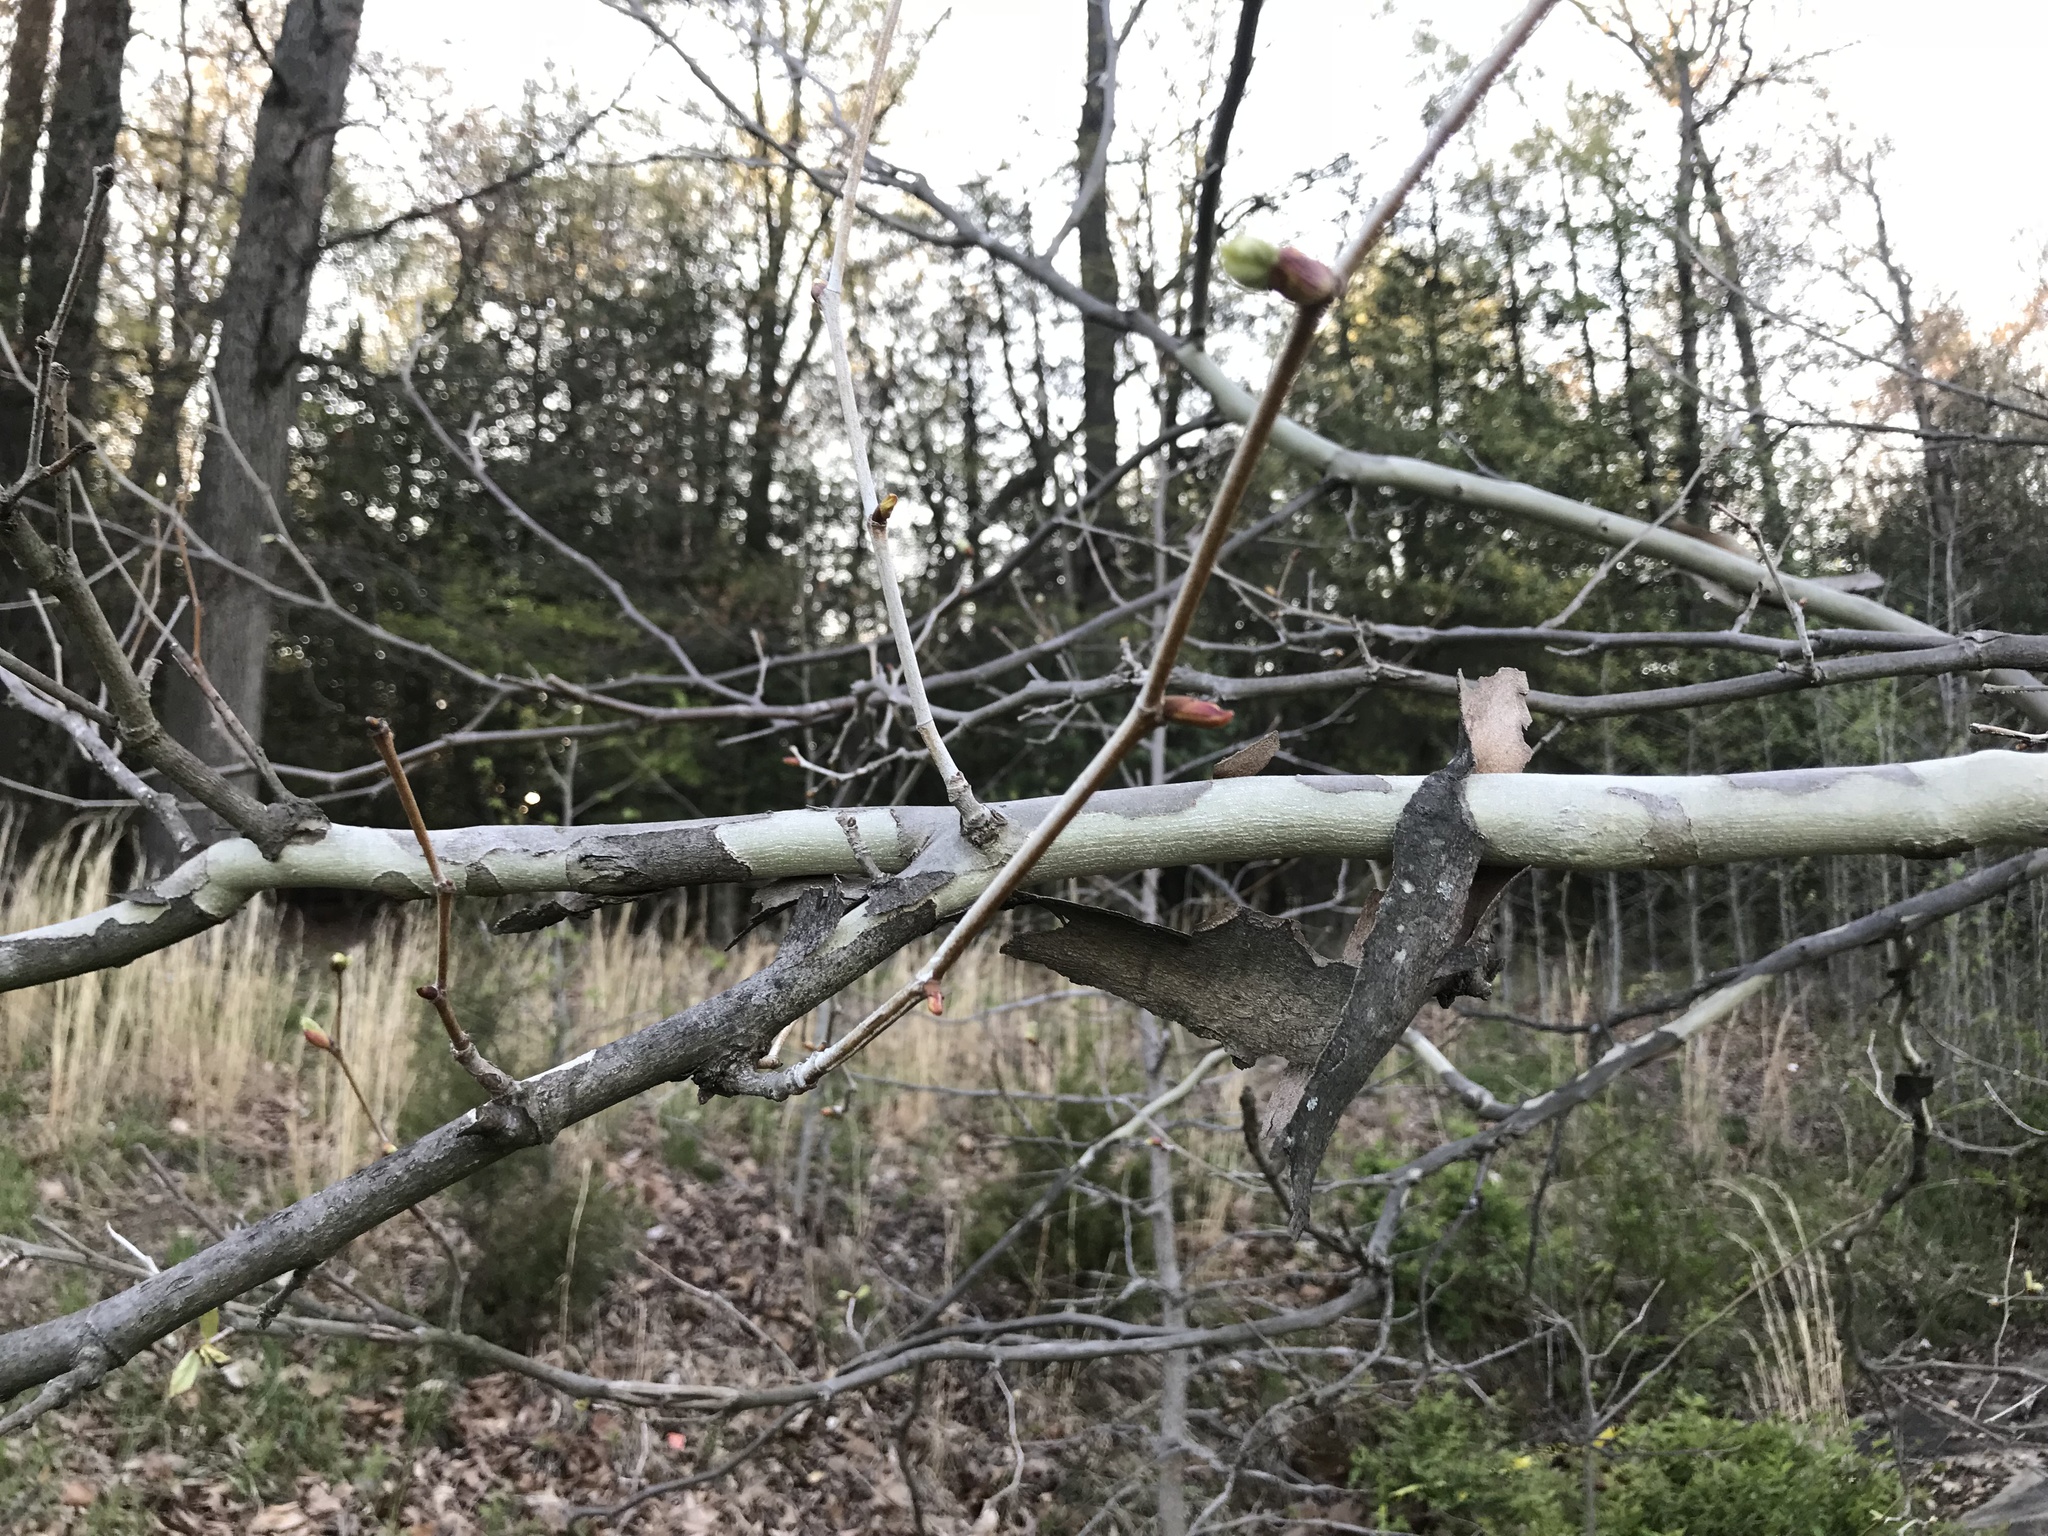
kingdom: Plantae
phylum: Tracheophyta
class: Magnoliopsida
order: Proteales
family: Platanaceae
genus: Platanus
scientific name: Platanus occidentalis
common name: American sycamore
